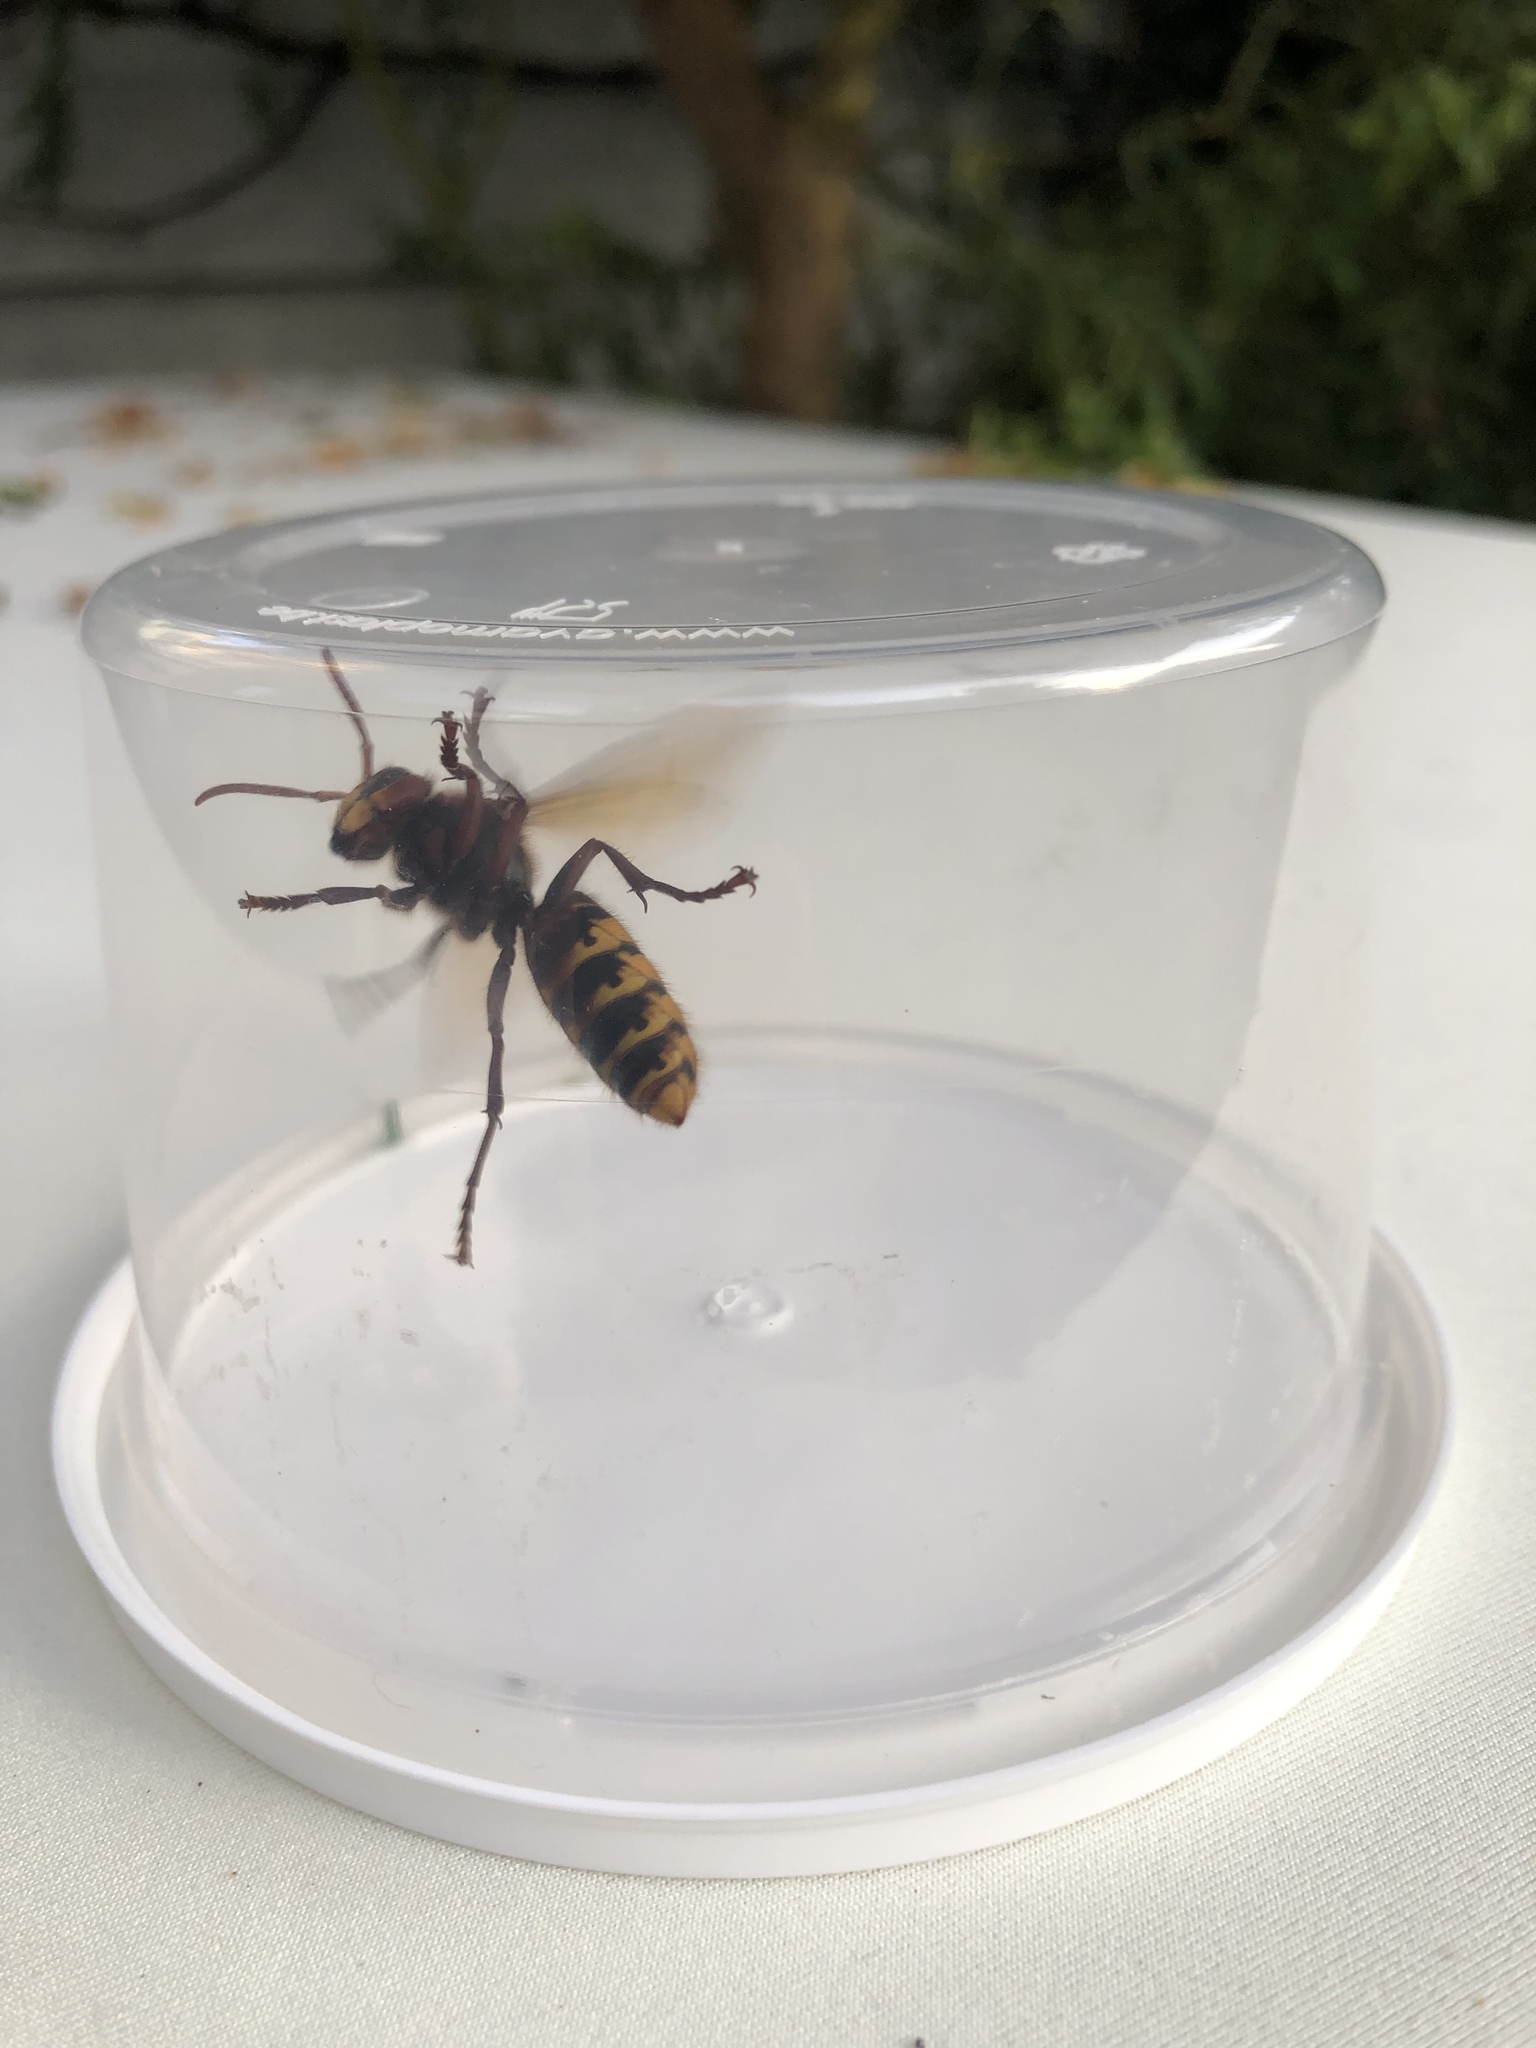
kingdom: Animalia
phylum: Arthropoda
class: Insecta
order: Hymenoptera
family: Vespidae
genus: Vespa
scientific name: Vespa crabro
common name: Hornet
